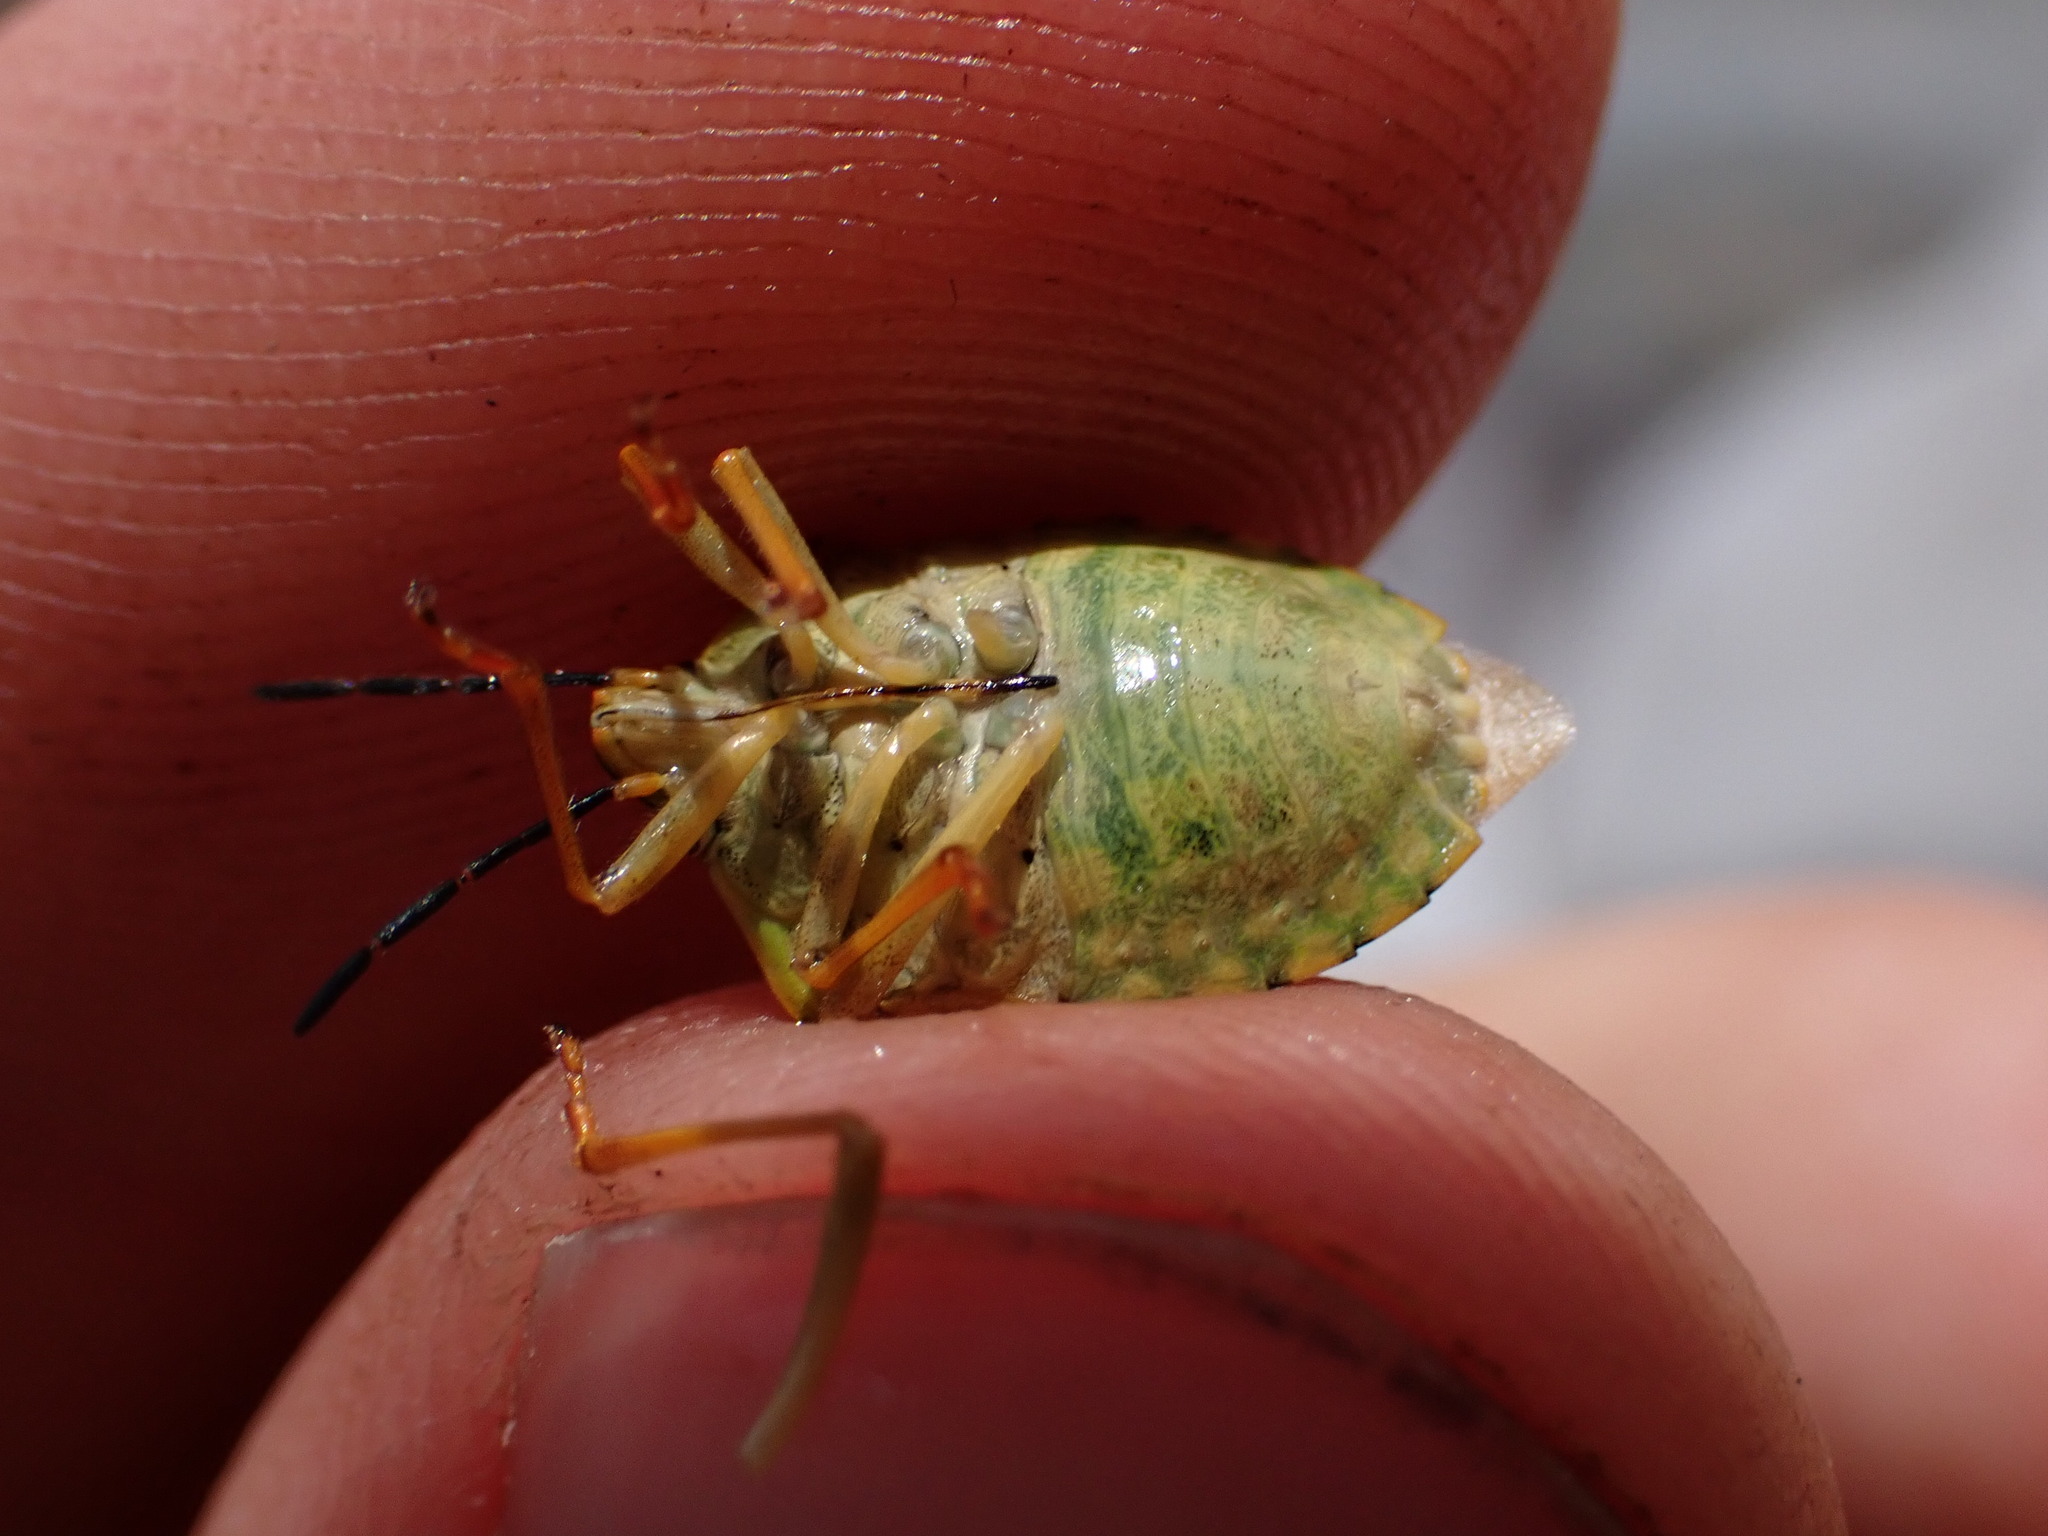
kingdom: Animalia
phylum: Arthropoda
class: Insecta
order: Hemiptera
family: Pentatomidae
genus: Carpocoris
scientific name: Carpocoris purpureipennis
